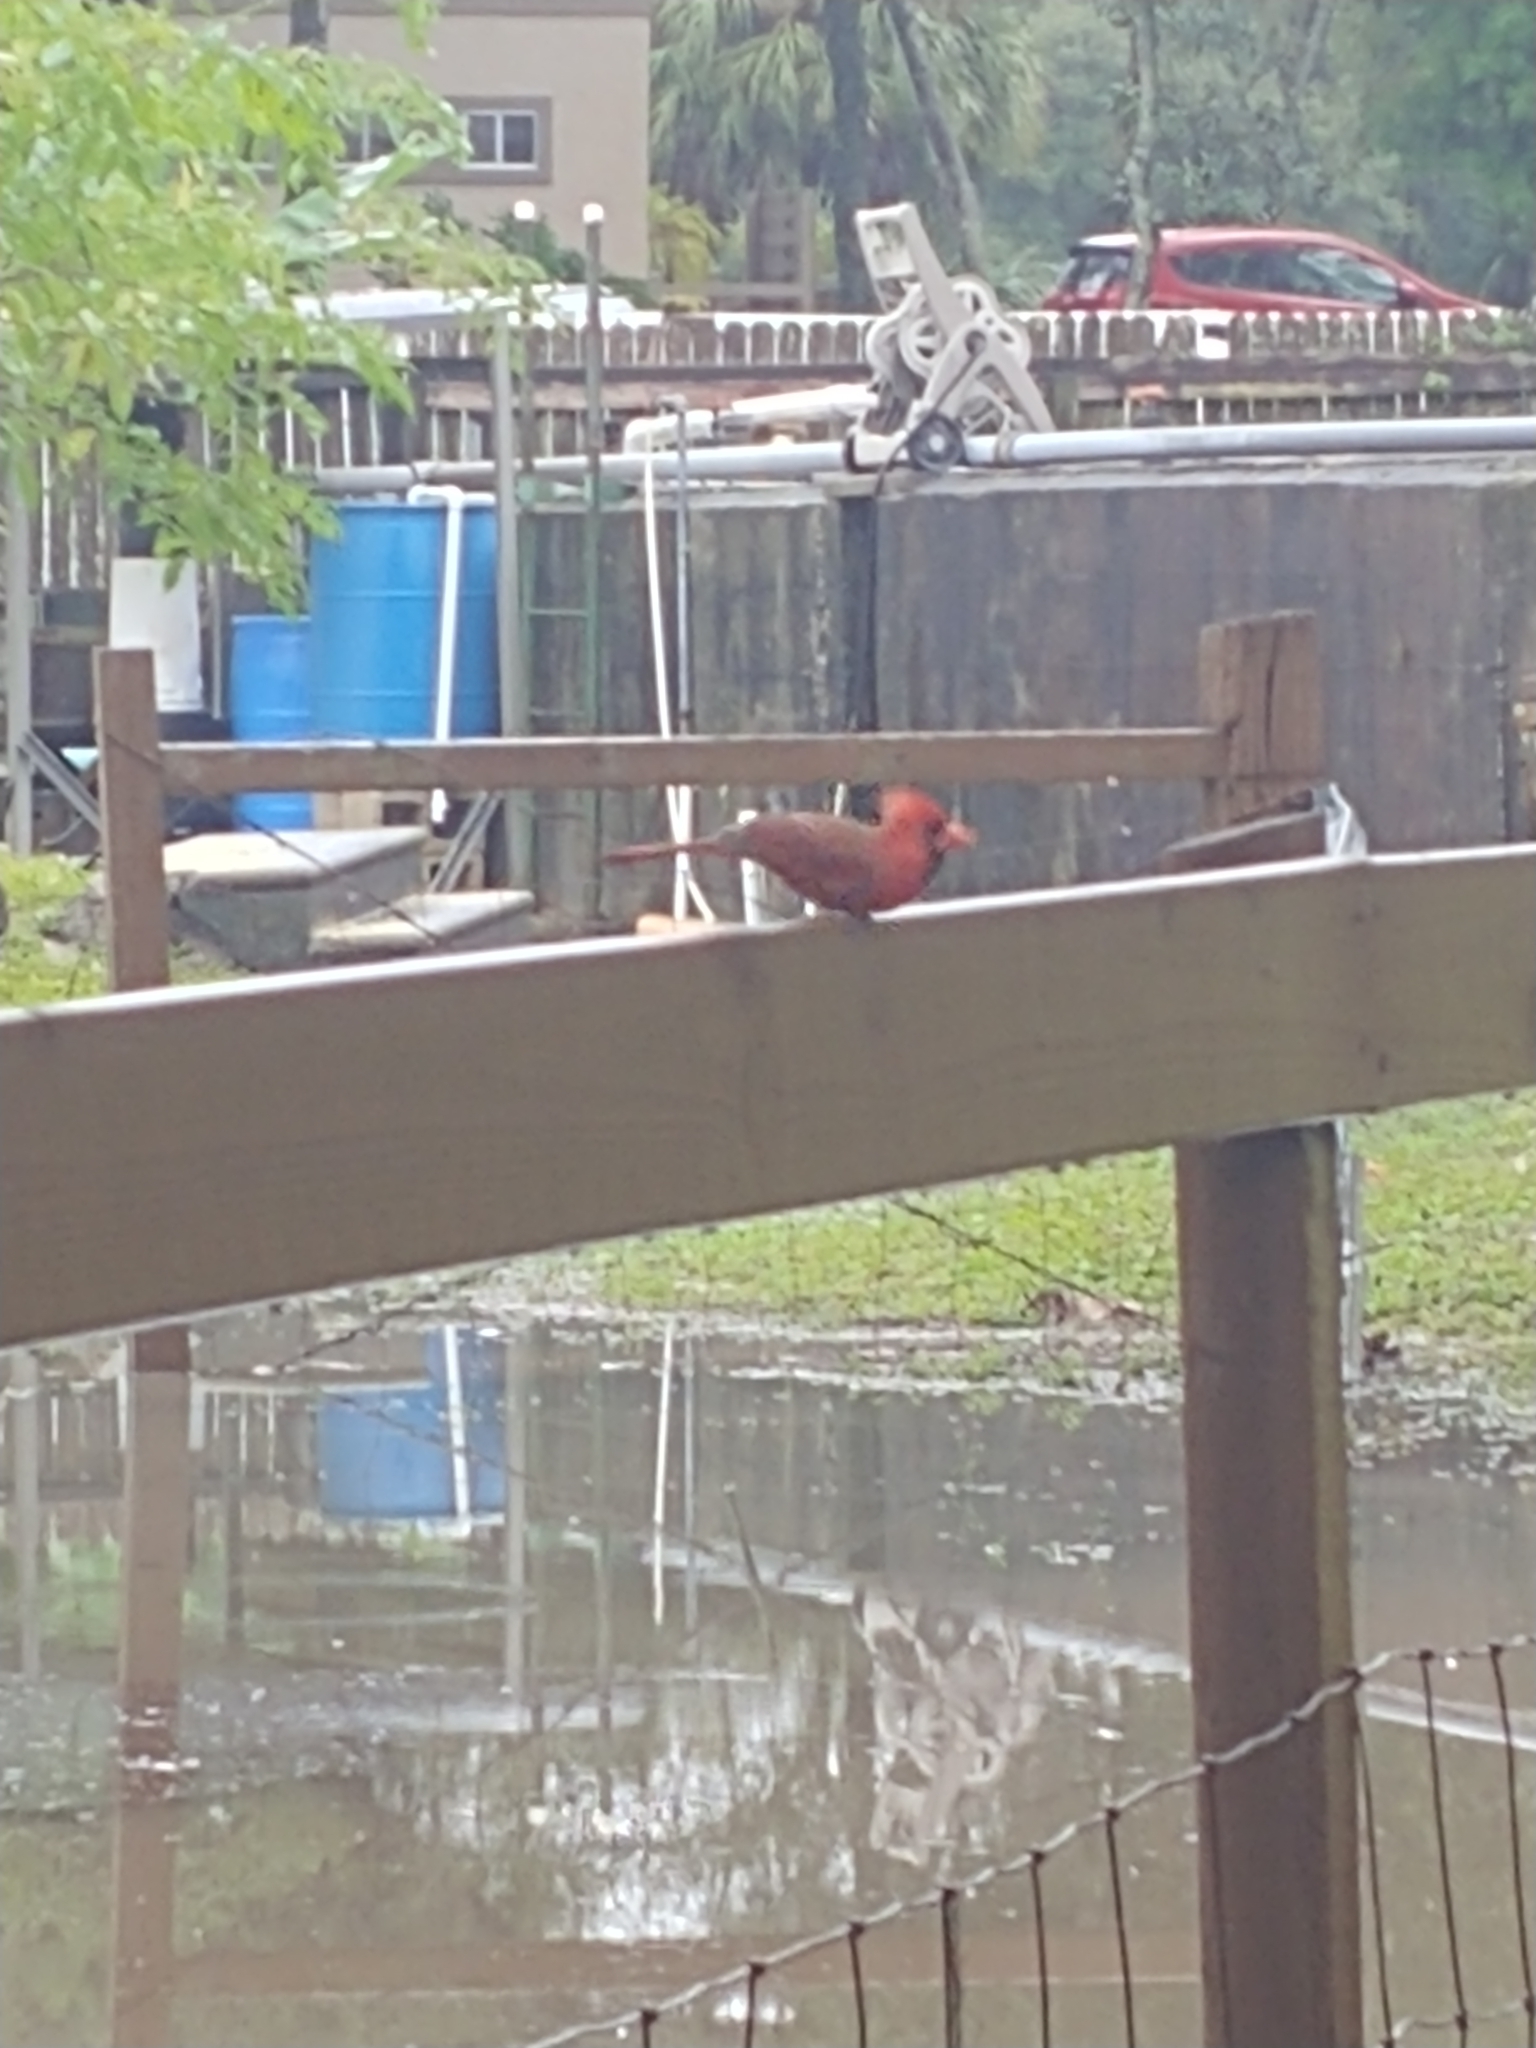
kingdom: Animalia
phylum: Chordata
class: Aves
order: Passeriformes
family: Cardinalidae
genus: Cardinalis
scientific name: Cardinalis cardinalis
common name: Northern cardinal
